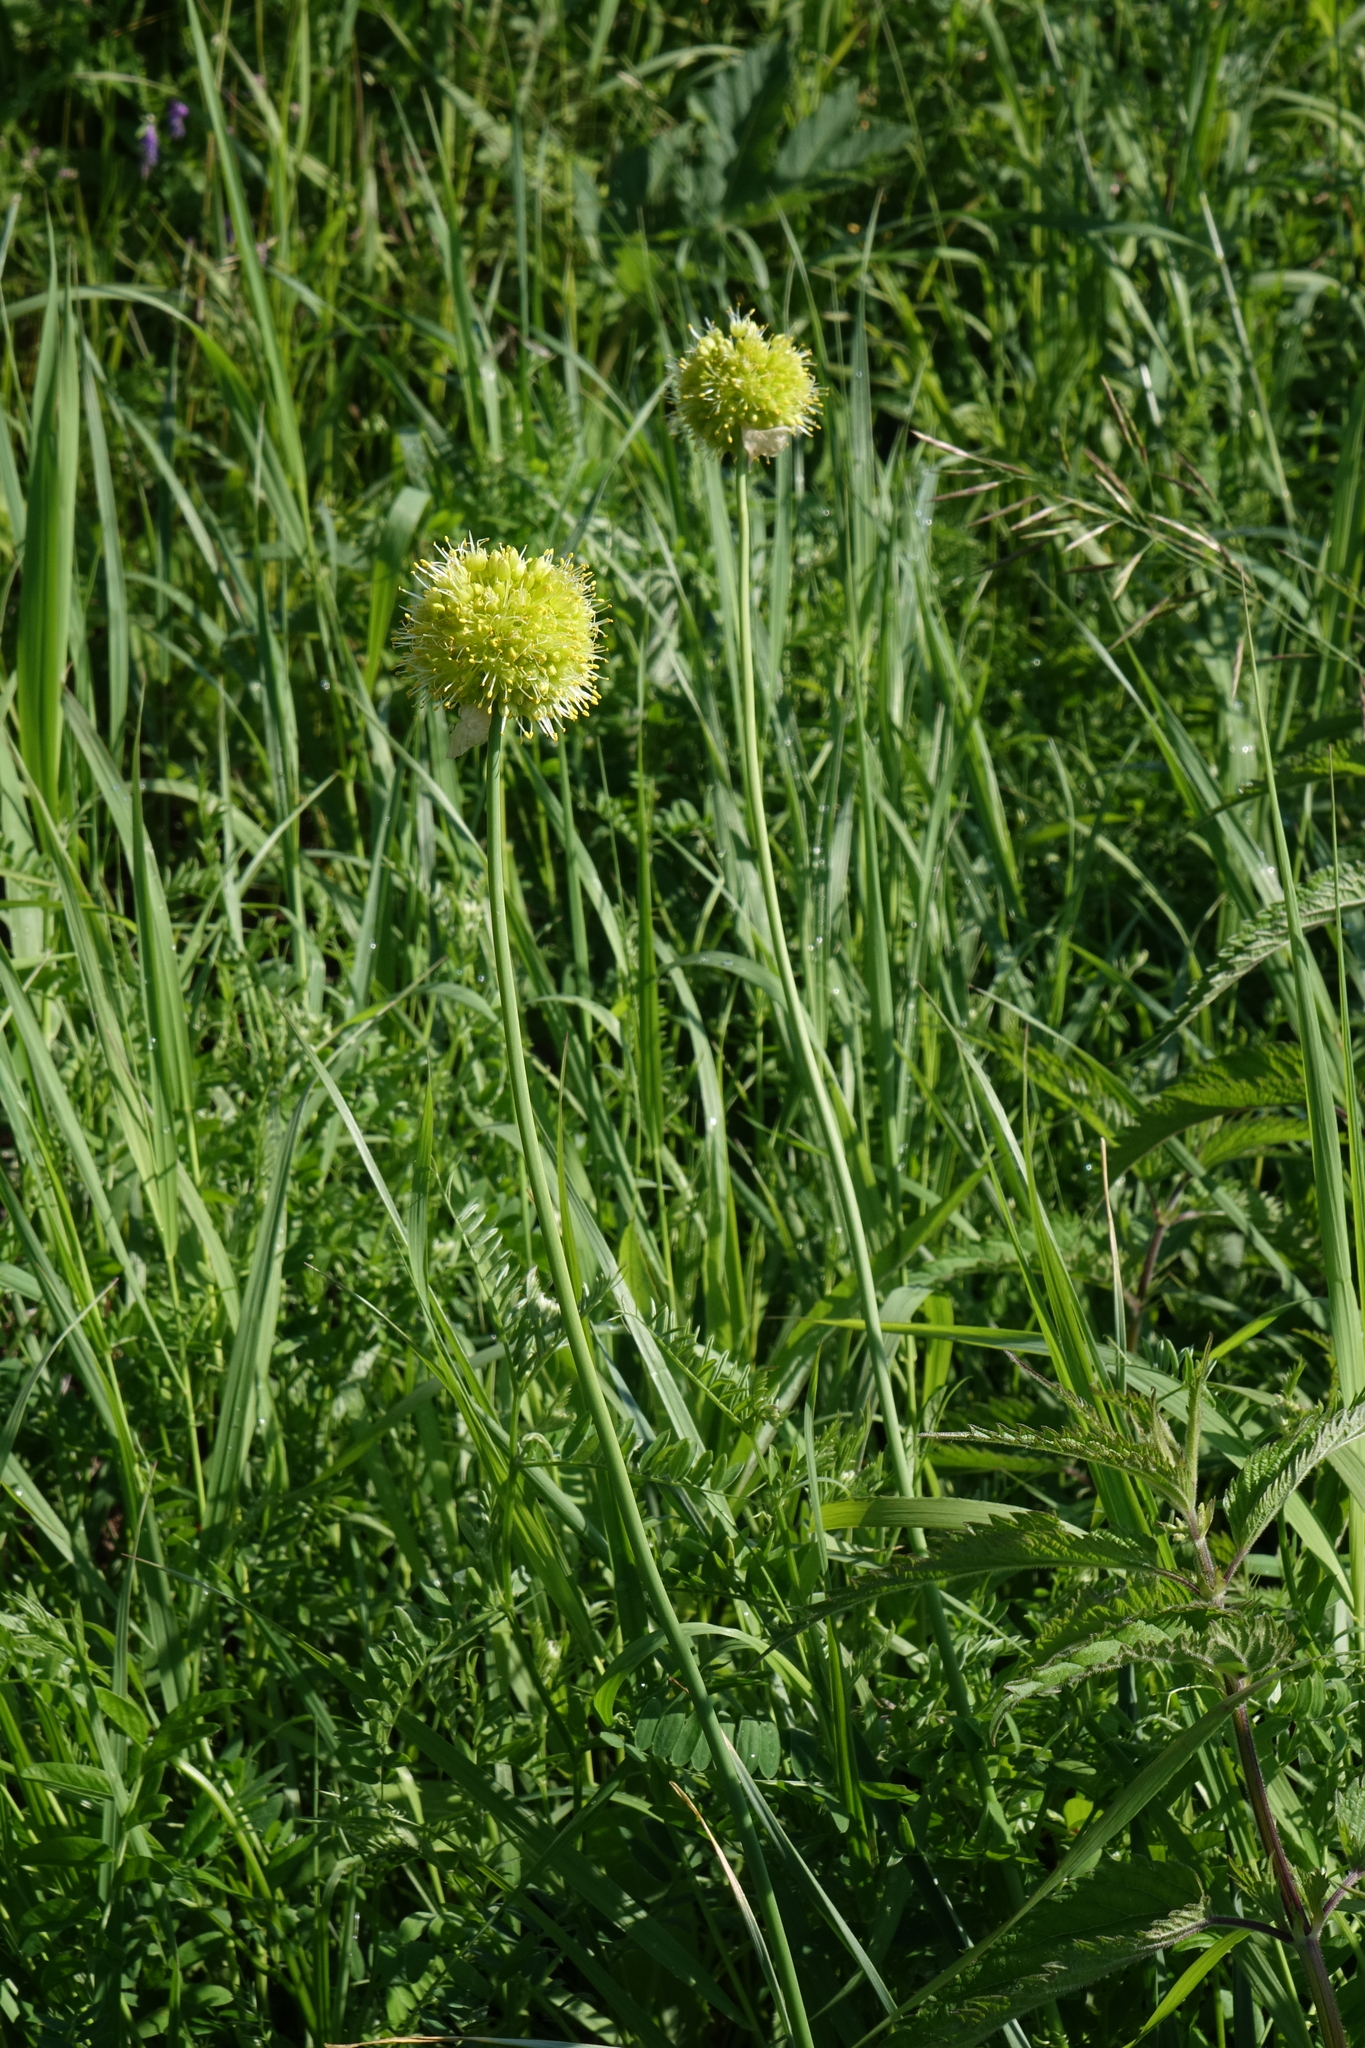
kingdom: Plantae
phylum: Tracheophyta
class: Liliopsida
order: Asparagales
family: Amaryllidaceae
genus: Allium
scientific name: Allium obliquum
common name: Oblique onion
